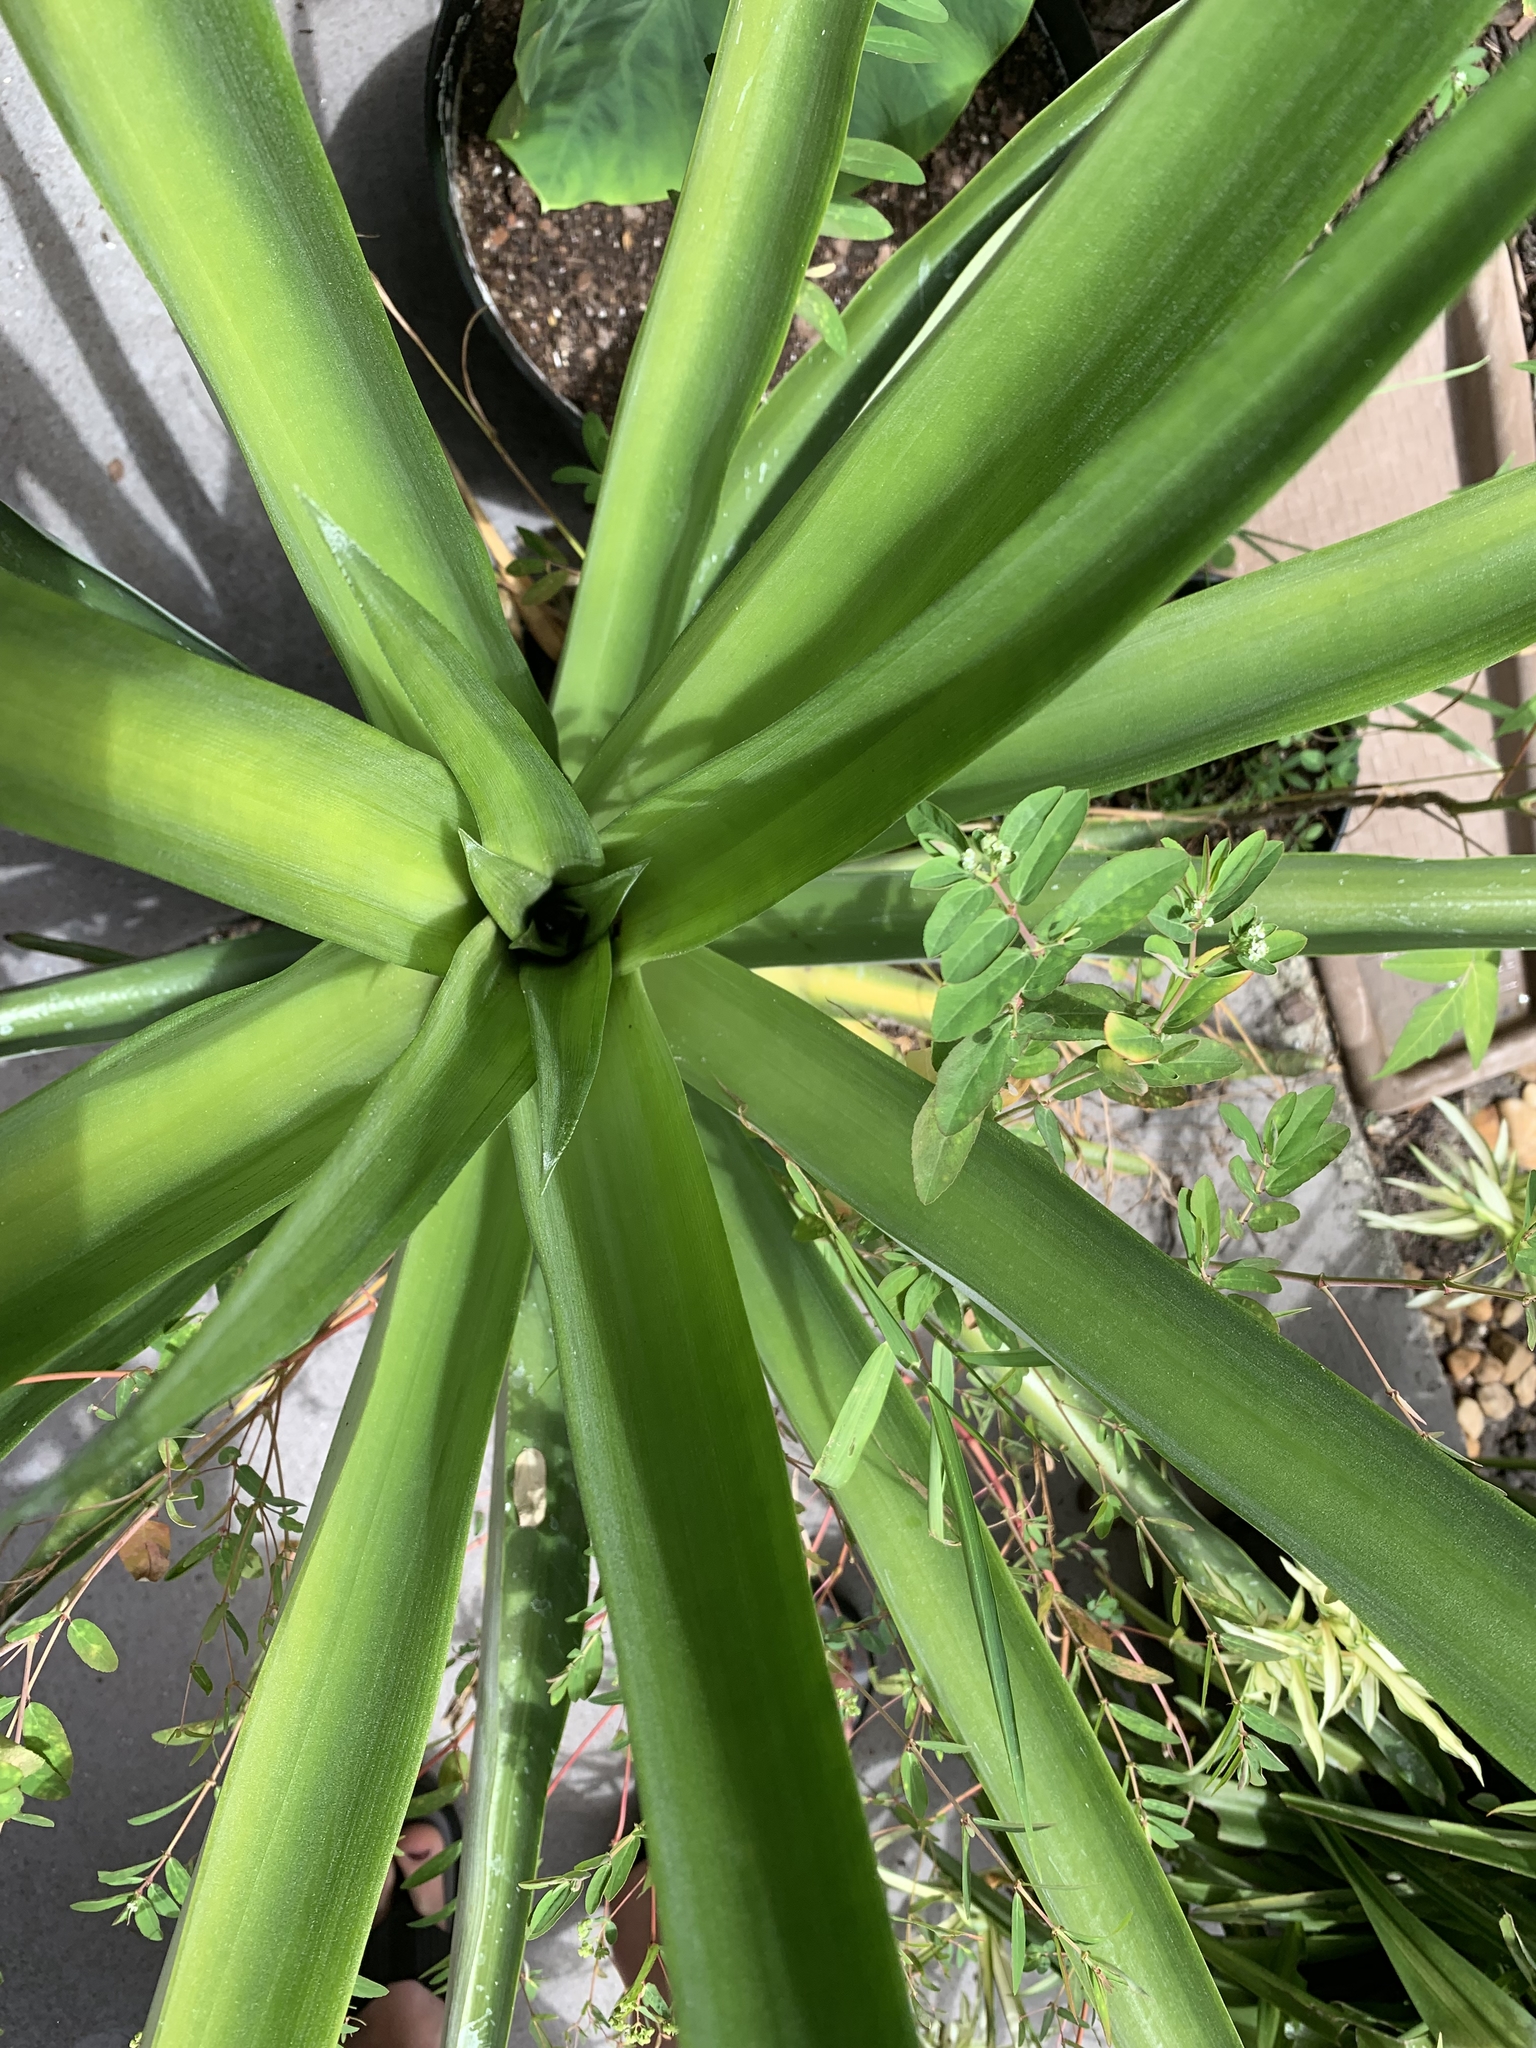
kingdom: Animalia
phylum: Chordata
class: Amphibia
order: Anura
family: Hylidae
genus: Hyla
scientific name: Hyla
